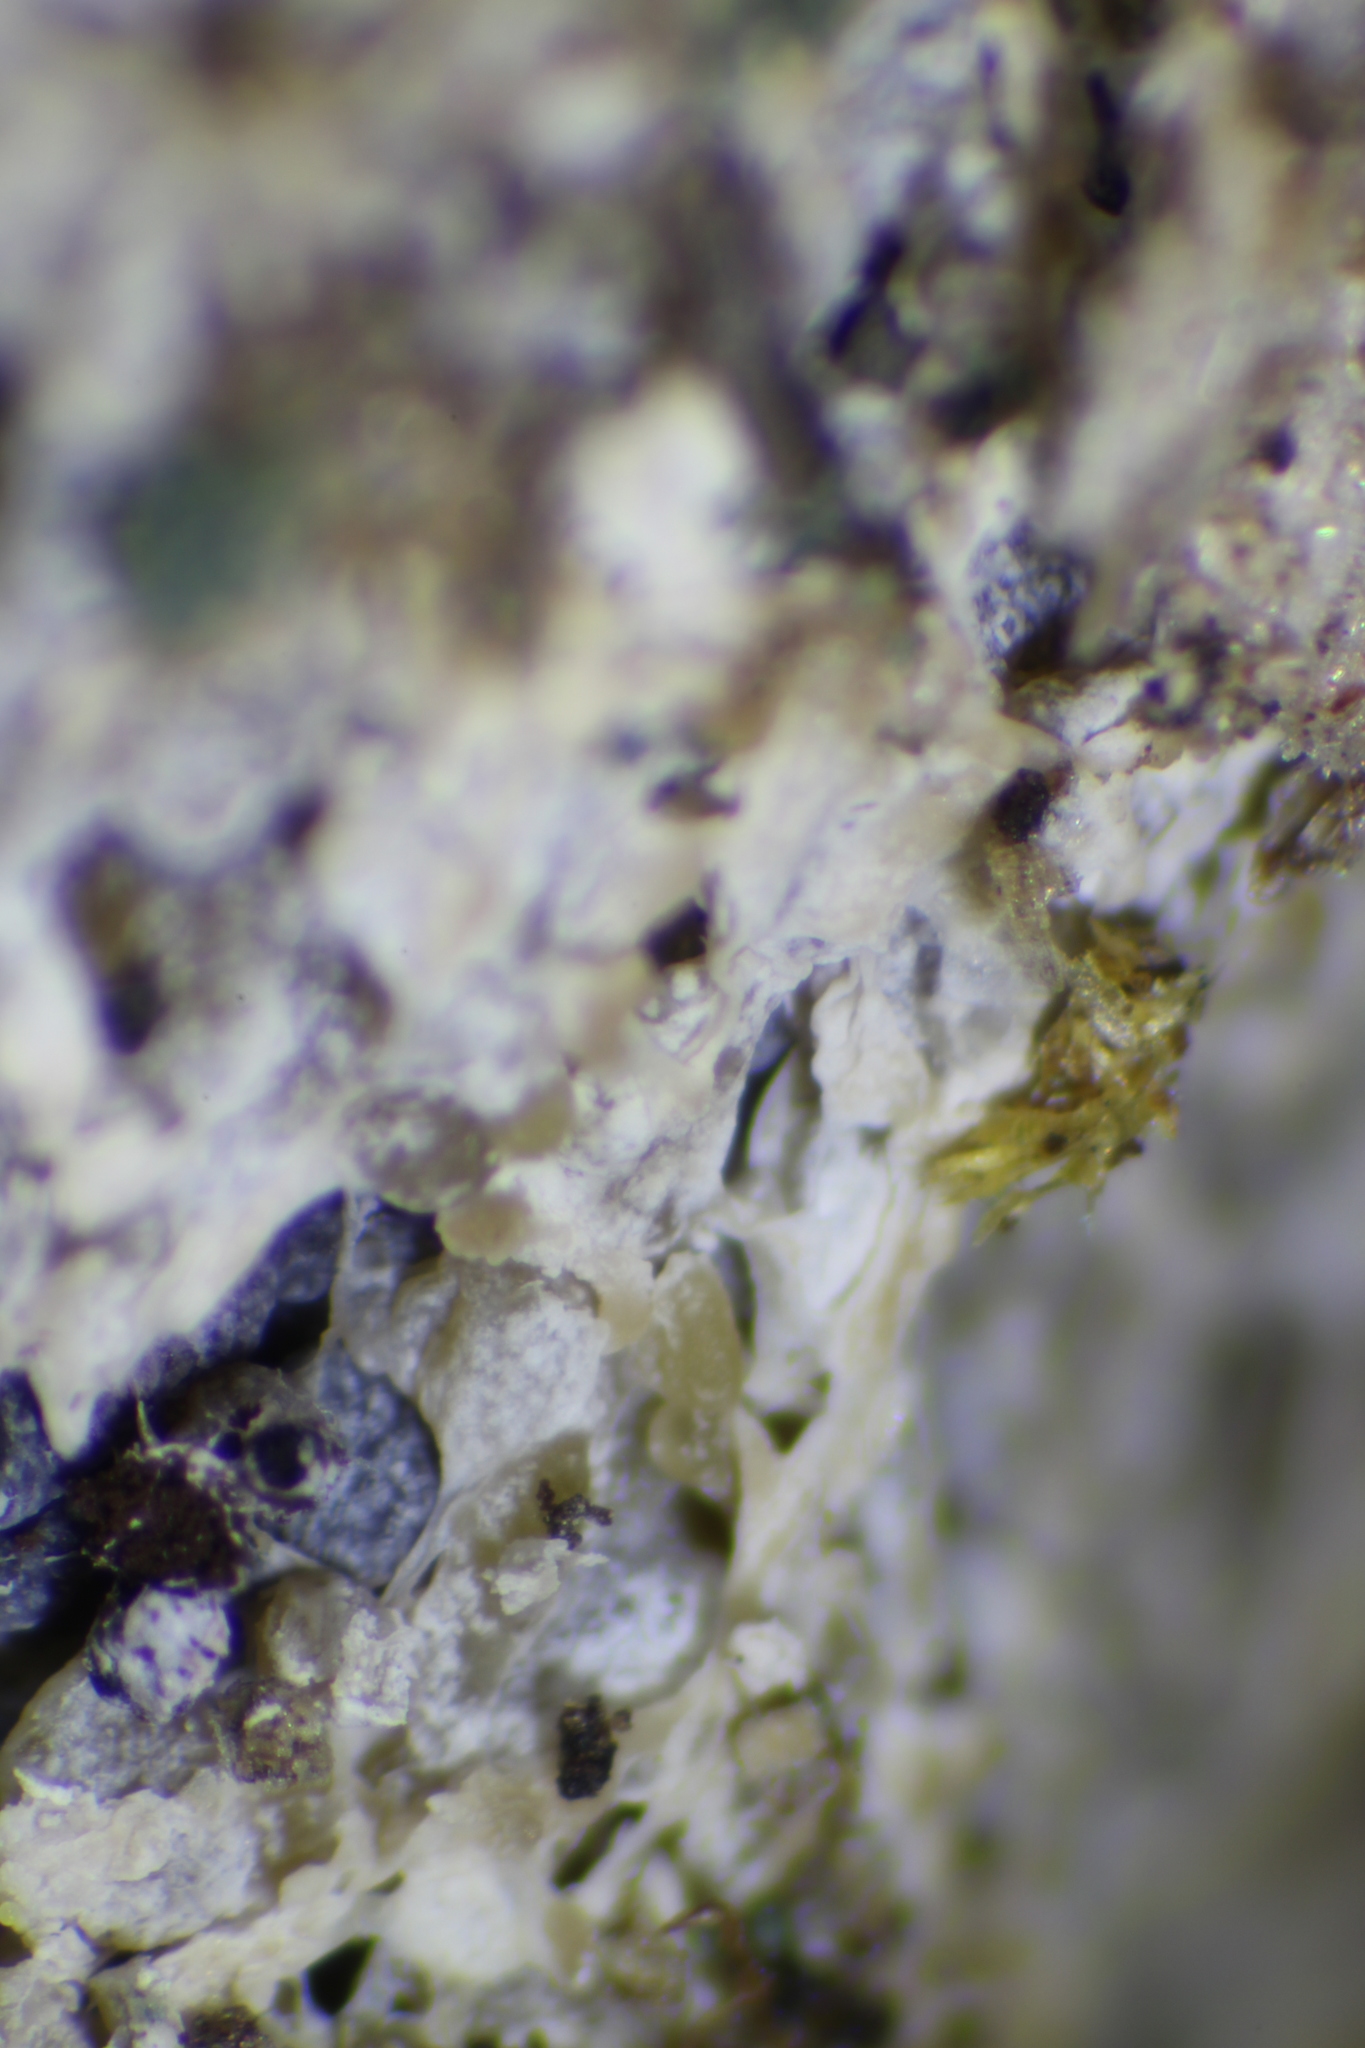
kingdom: Protozoa
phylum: Mycetozoa
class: Myxomycetes
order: Physarales
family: Physaraceae
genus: Fuligo
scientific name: Fuligo intermedia
